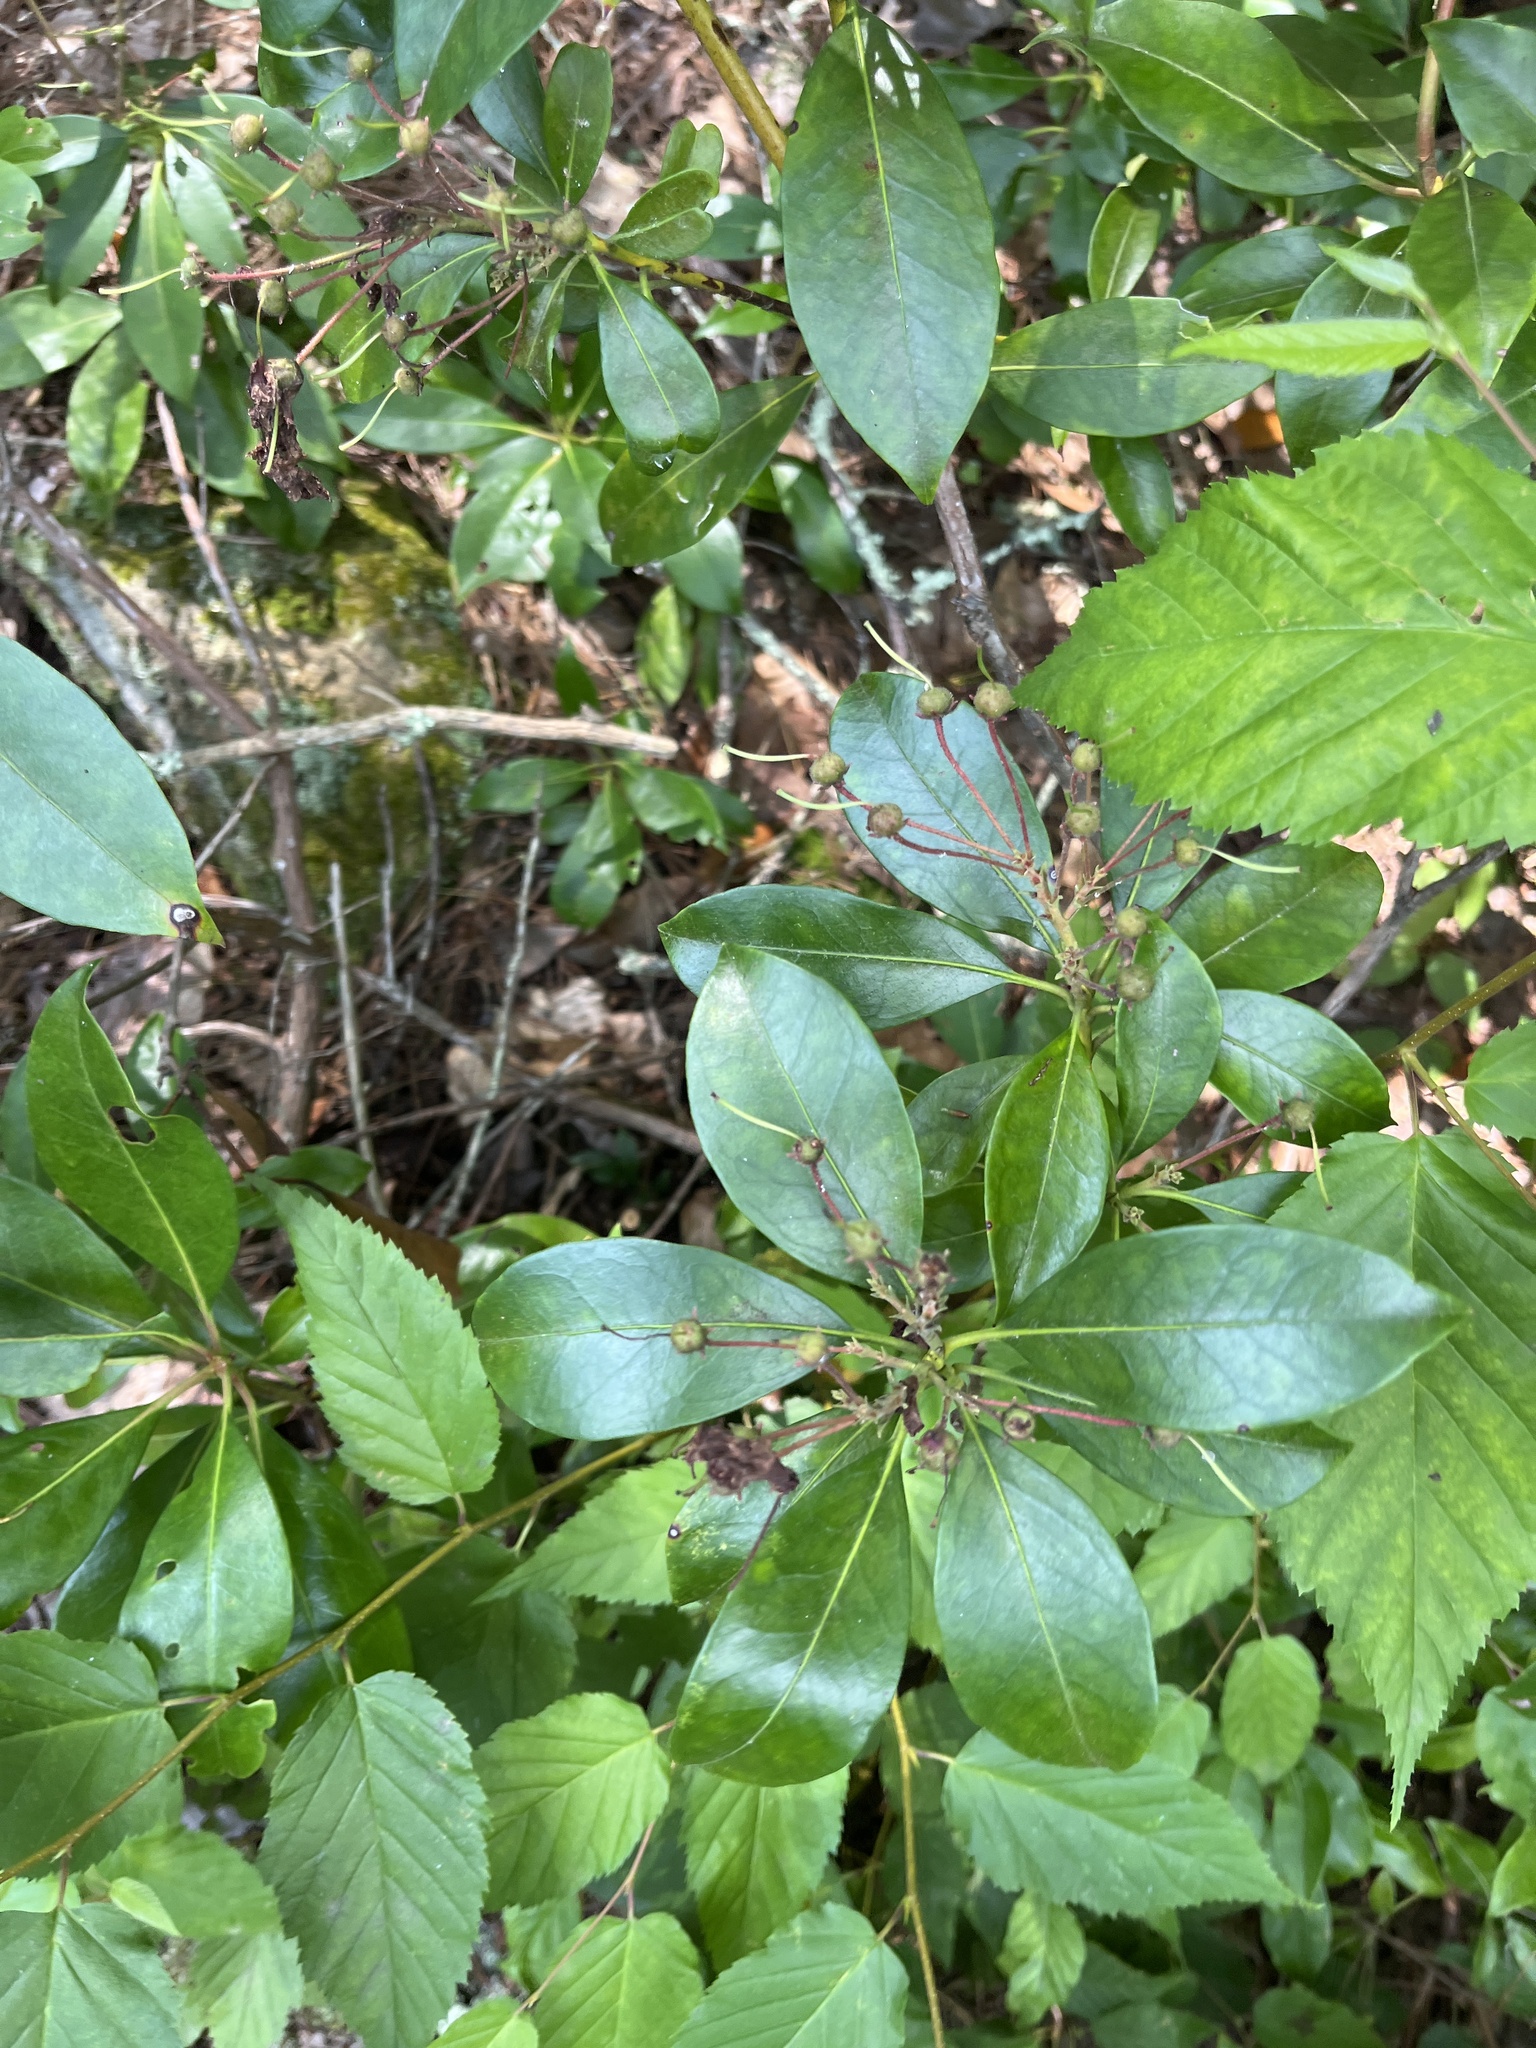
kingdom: Plantae
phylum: Tracheophyta
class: Magnoliopsida
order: Ericales
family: Ericaceae
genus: Kalmia
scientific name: Kalmia latifolia
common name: Mountain-laurel
